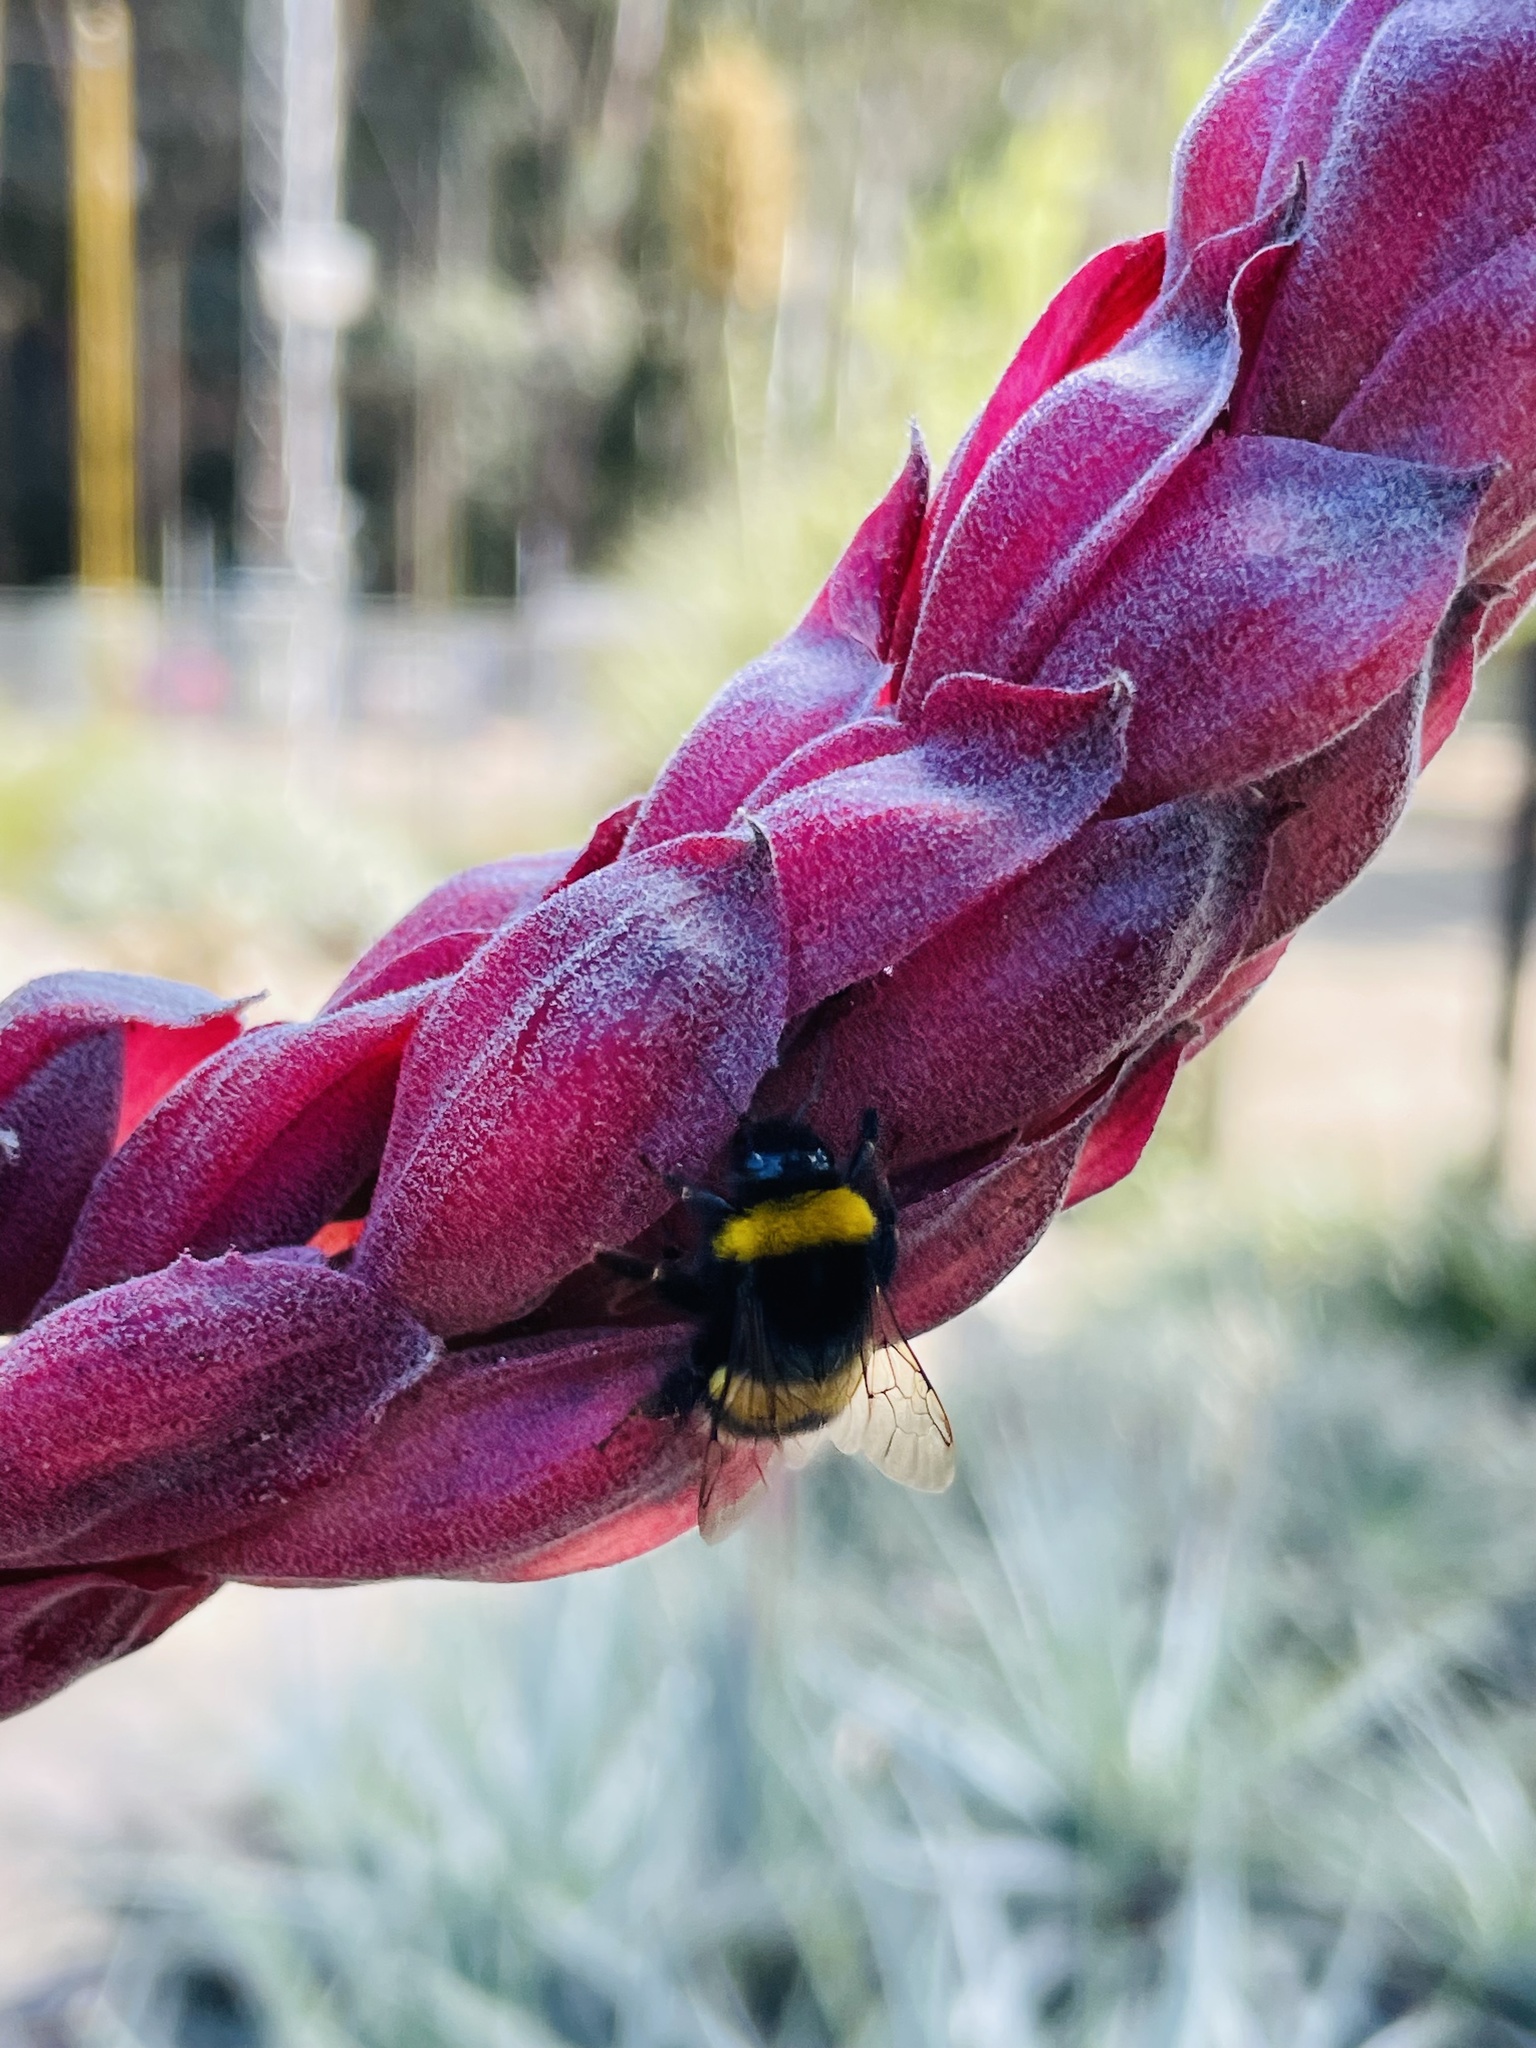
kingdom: Animalia
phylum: Arthropoda
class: Insecta
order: Hymenoptera
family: Apidae
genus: Bombus
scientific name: Bombus terrestris
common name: Buff-tailed bumblebee
